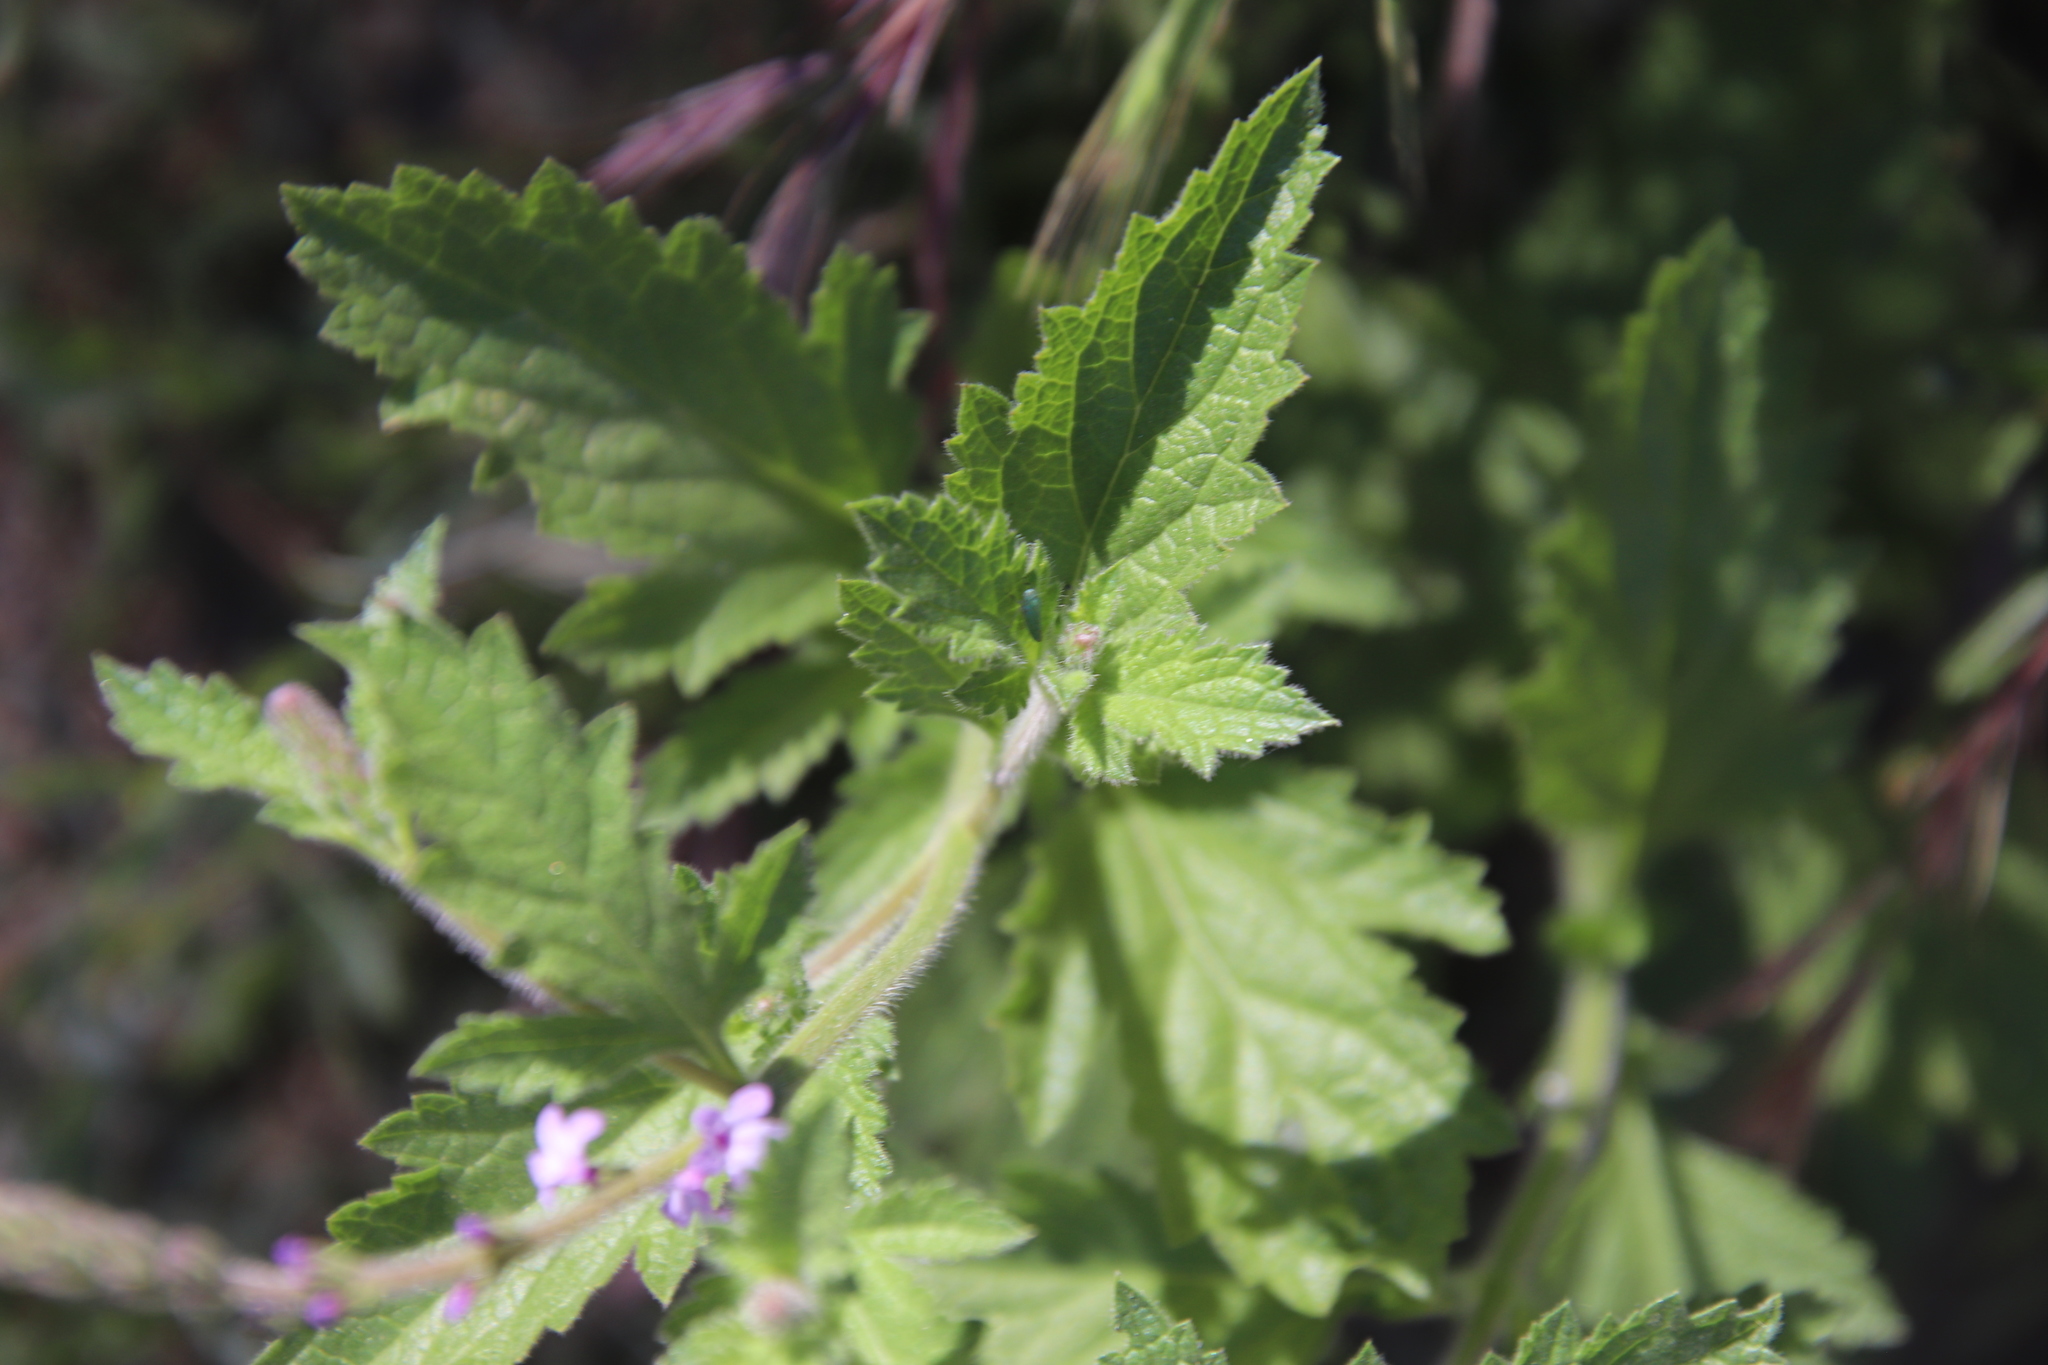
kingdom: Plantae
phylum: Tracheophyta
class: Magnoliopsida
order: Lamiales
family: Verbenaceae
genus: Verbena
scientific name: Verbena lasiostachys
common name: Vervain
